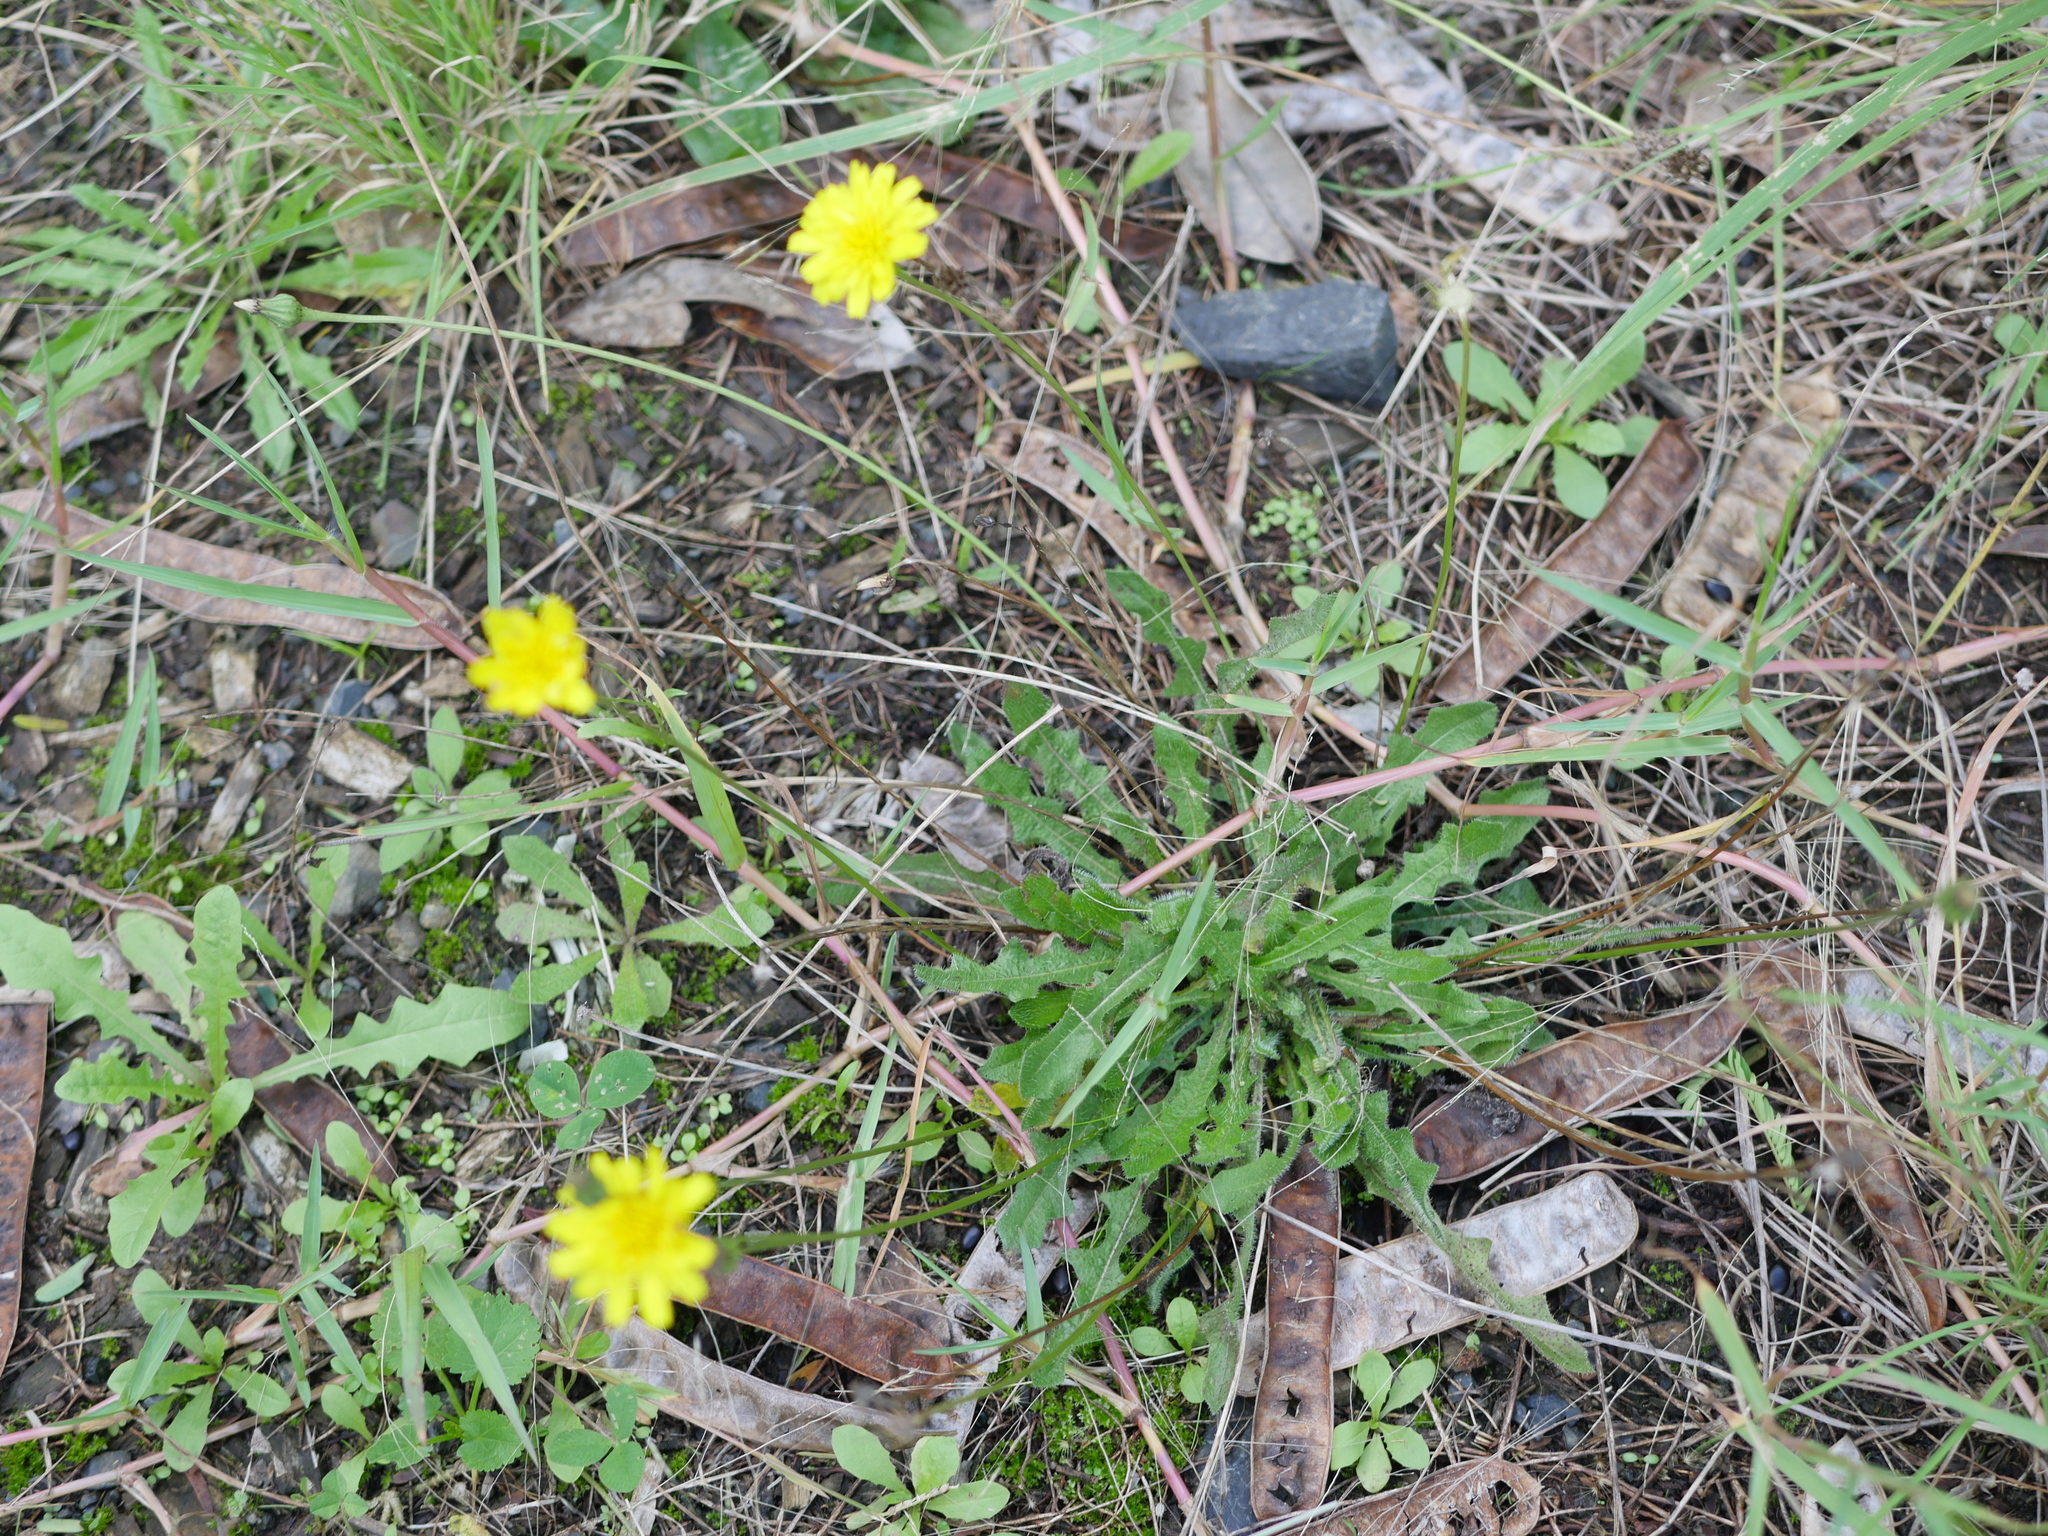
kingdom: Plantae
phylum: Tracheophyta
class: Magnoliopsida
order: Asterales
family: Asteraceae
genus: Thrincia
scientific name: Thrincia saxatilis
